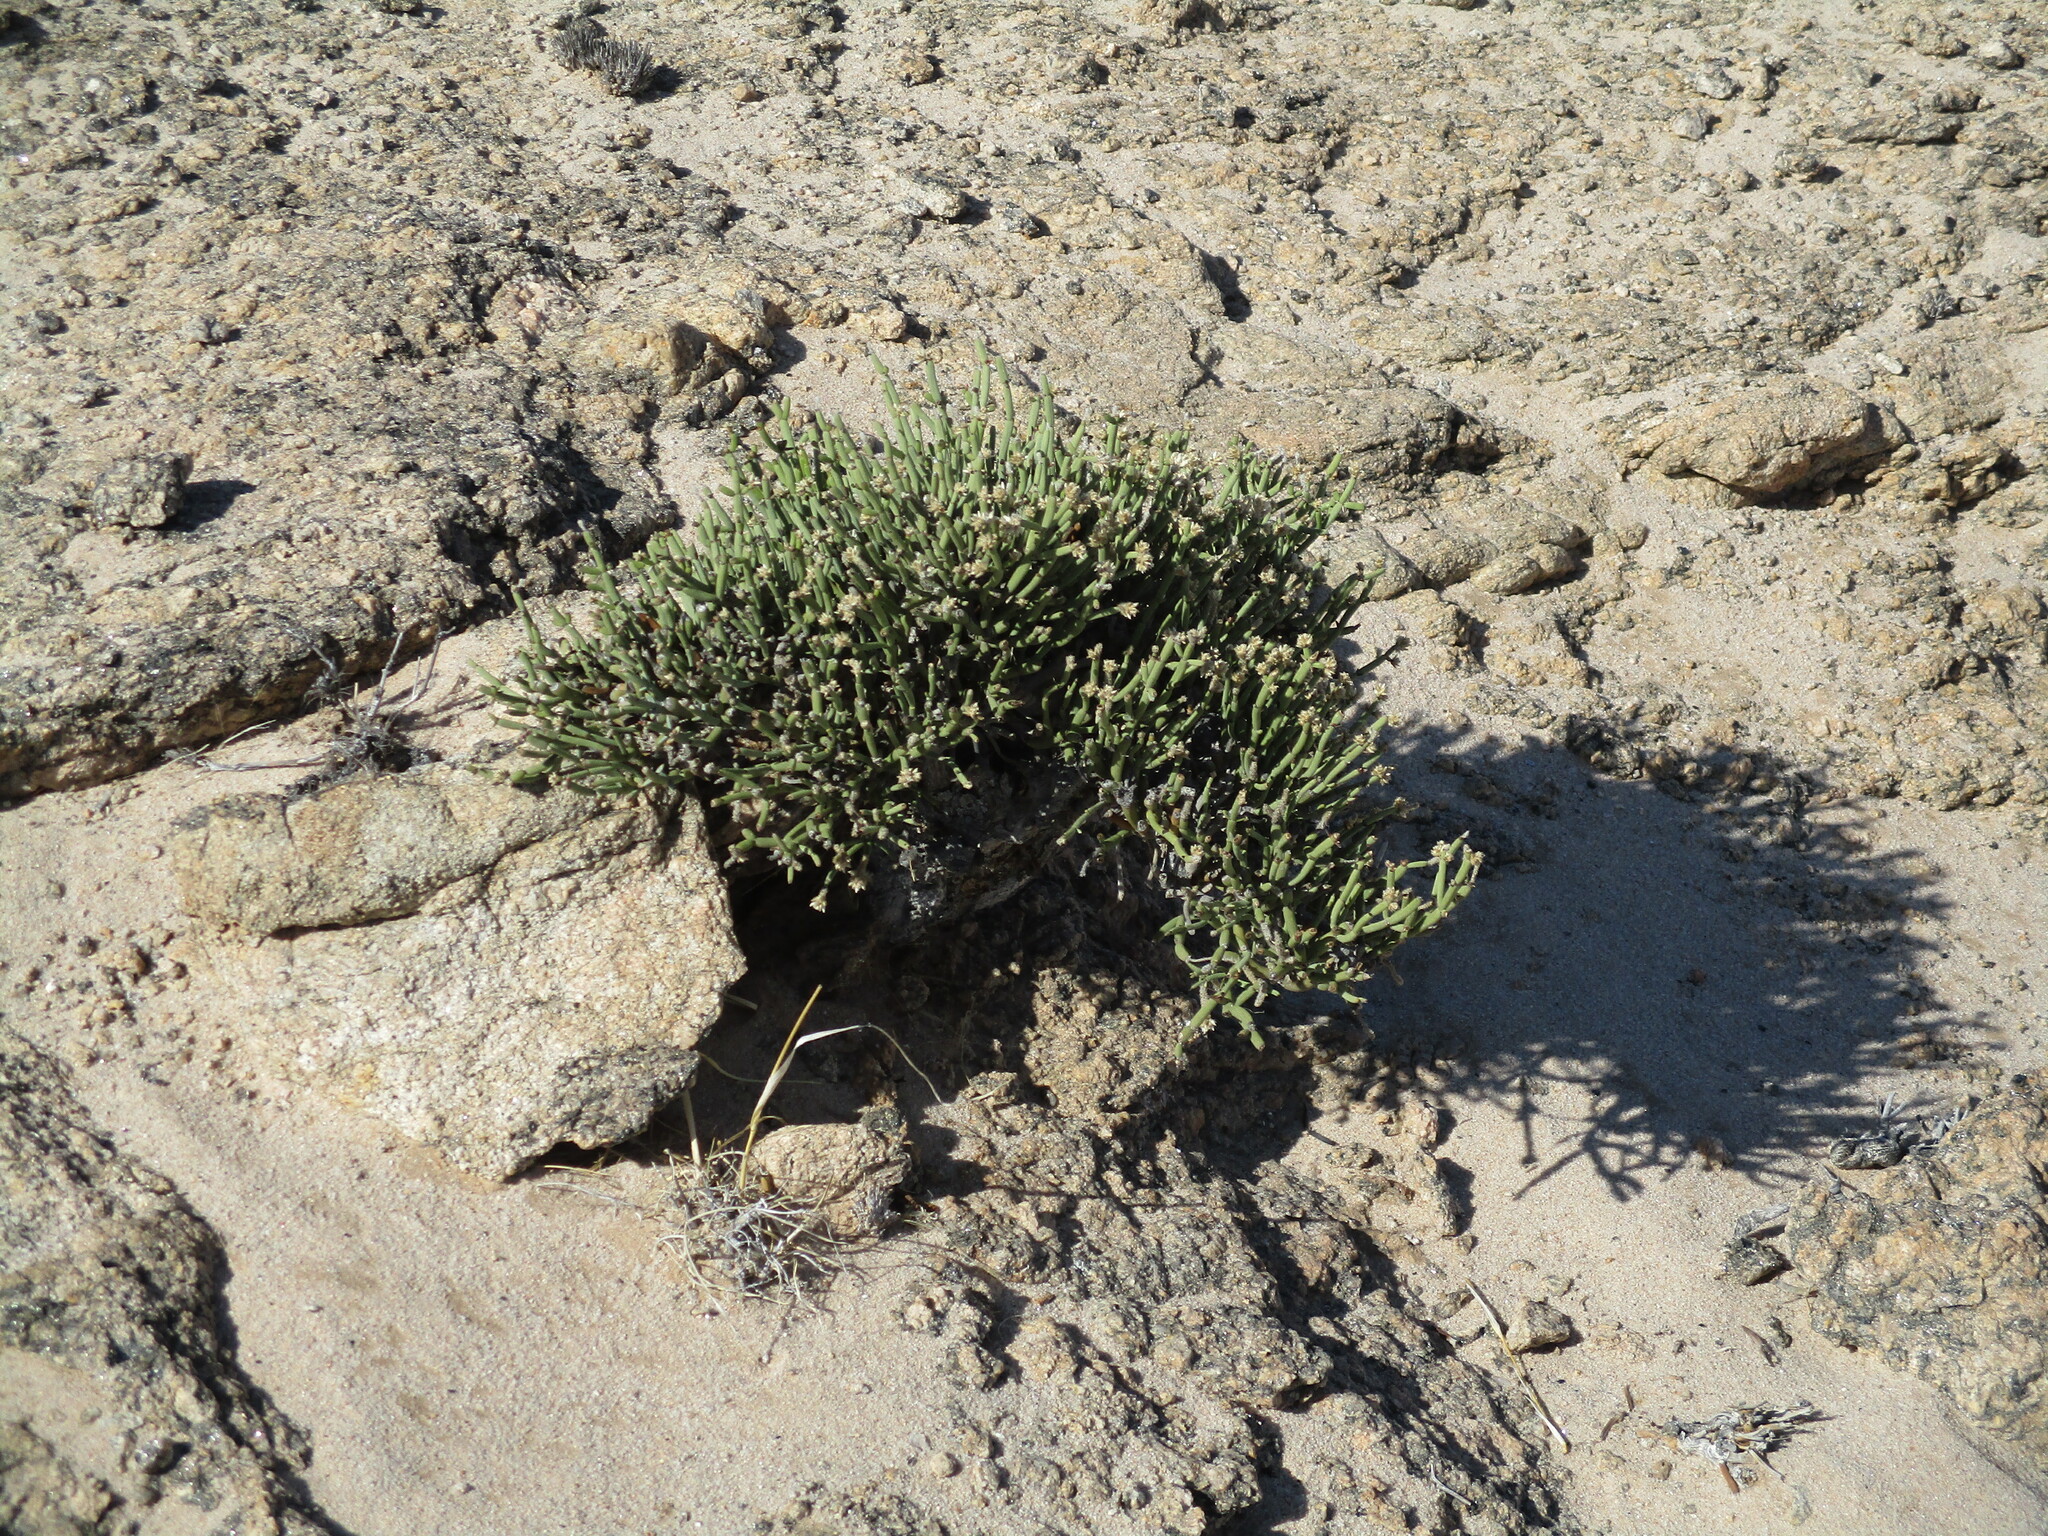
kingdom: Plantae
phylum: Tracheophyta
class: Magnoliopsida
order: Caryophyllales
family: Amaranthaceae
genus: Arthraerva
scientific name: Arthraerva leubnitziae
